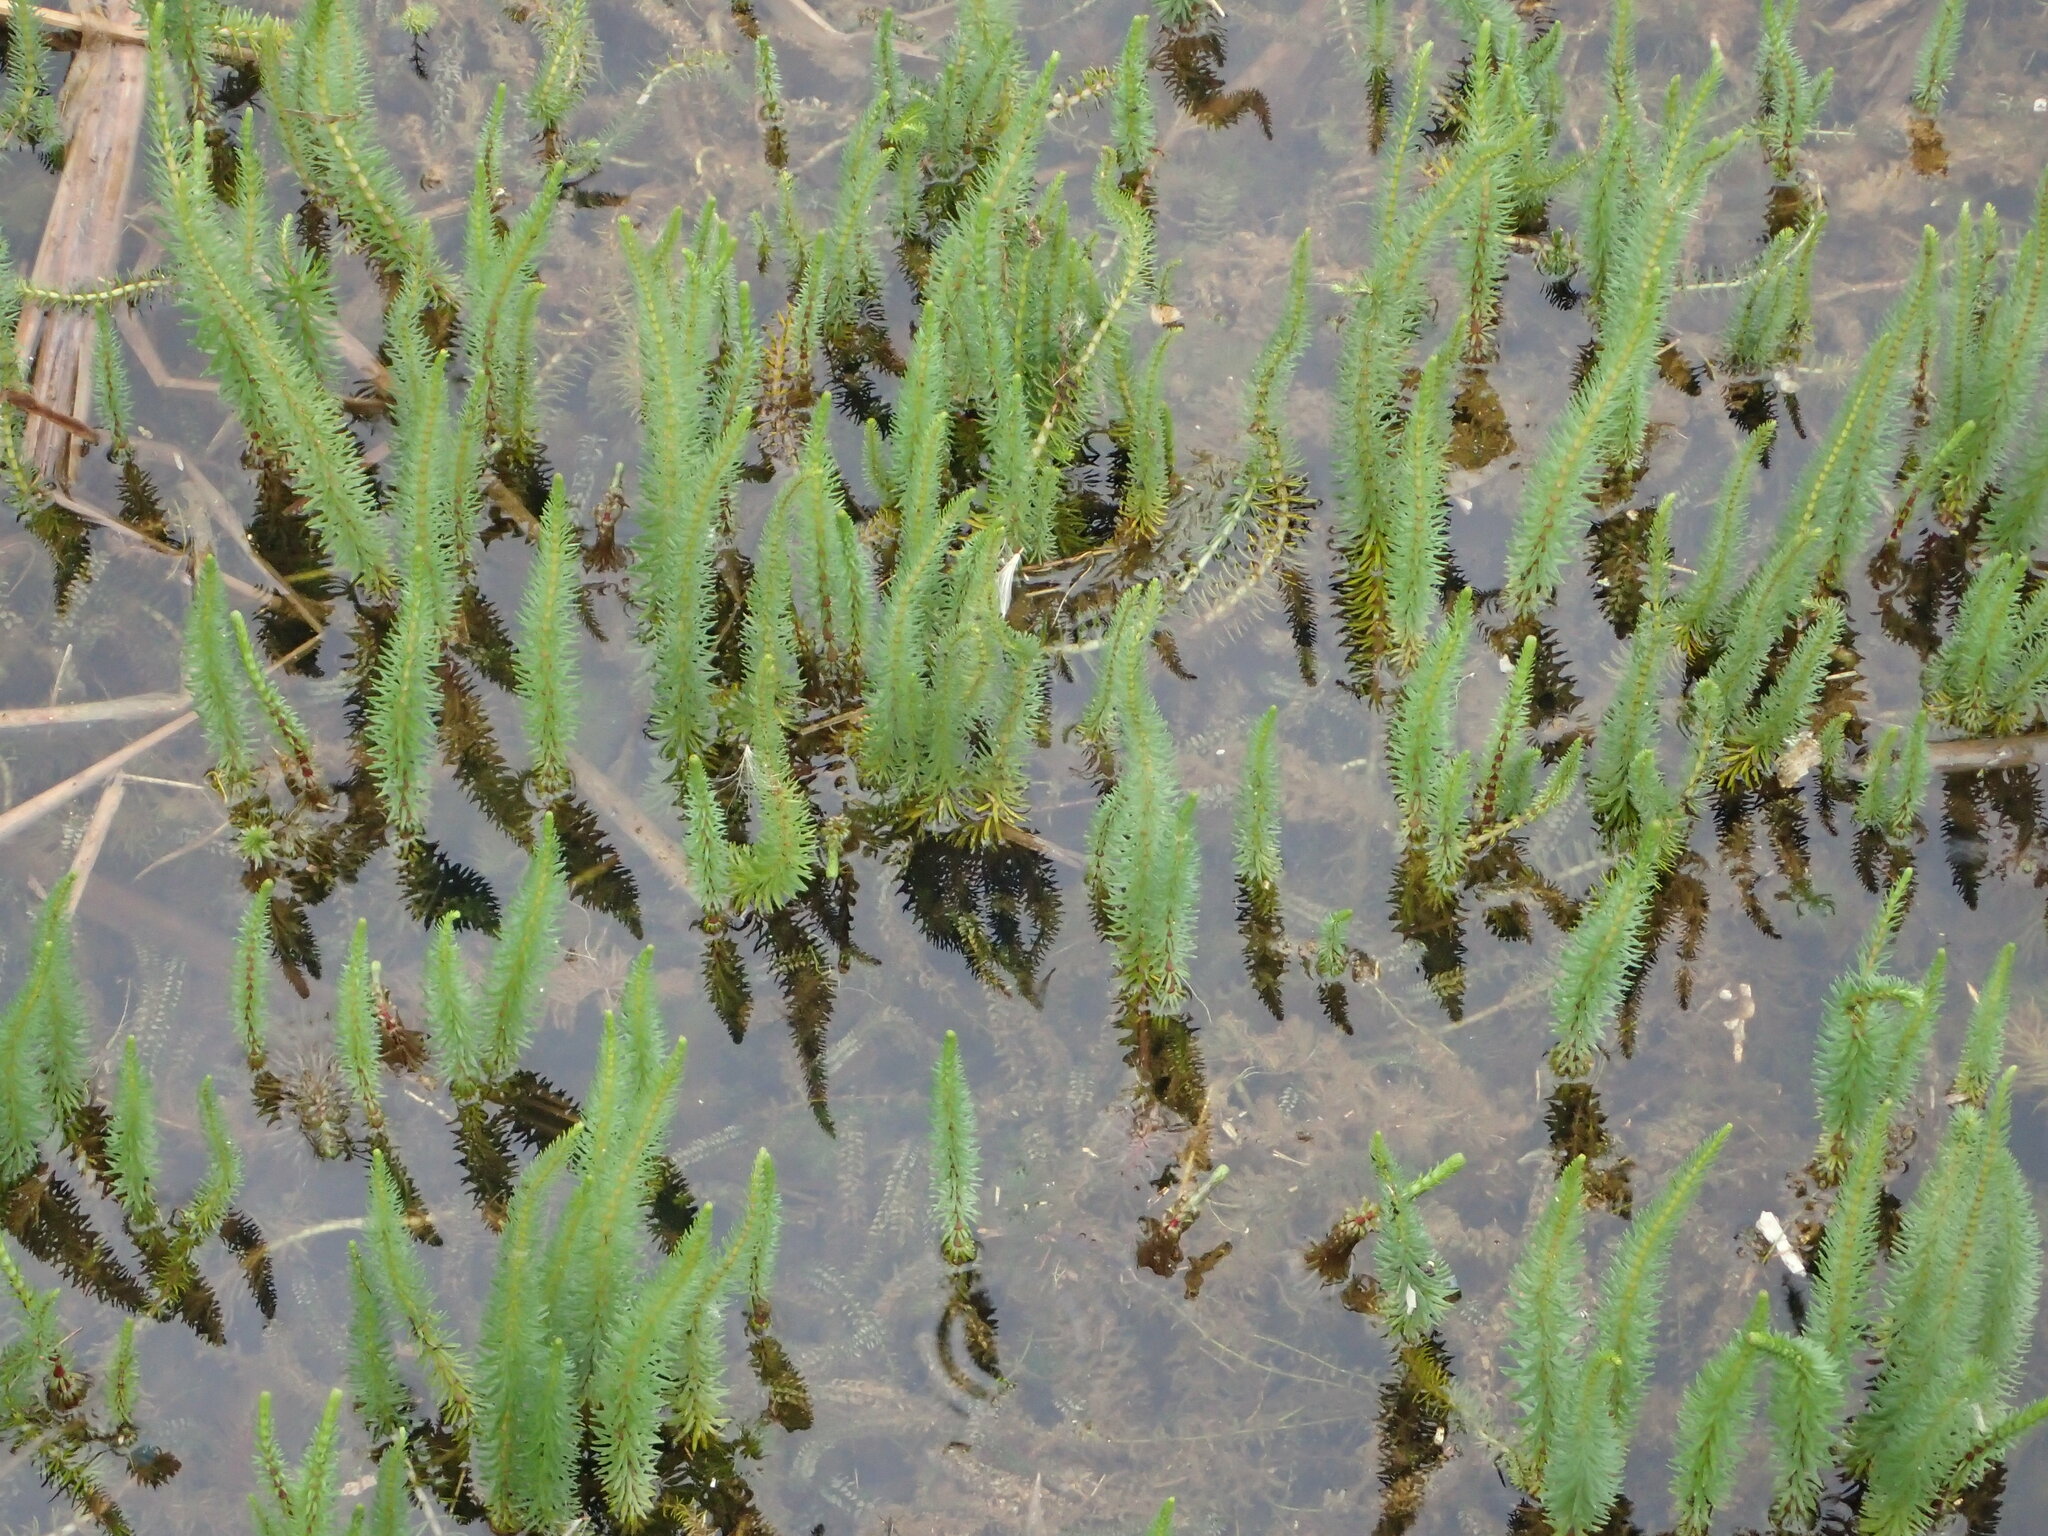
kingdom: Plantae
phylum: Tracheophyta
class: Magnoliopsida
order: Lamiales
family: Plantaginaceae
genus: Hippuris
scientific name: Hippuris vulgaris
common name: Mare's-tail
